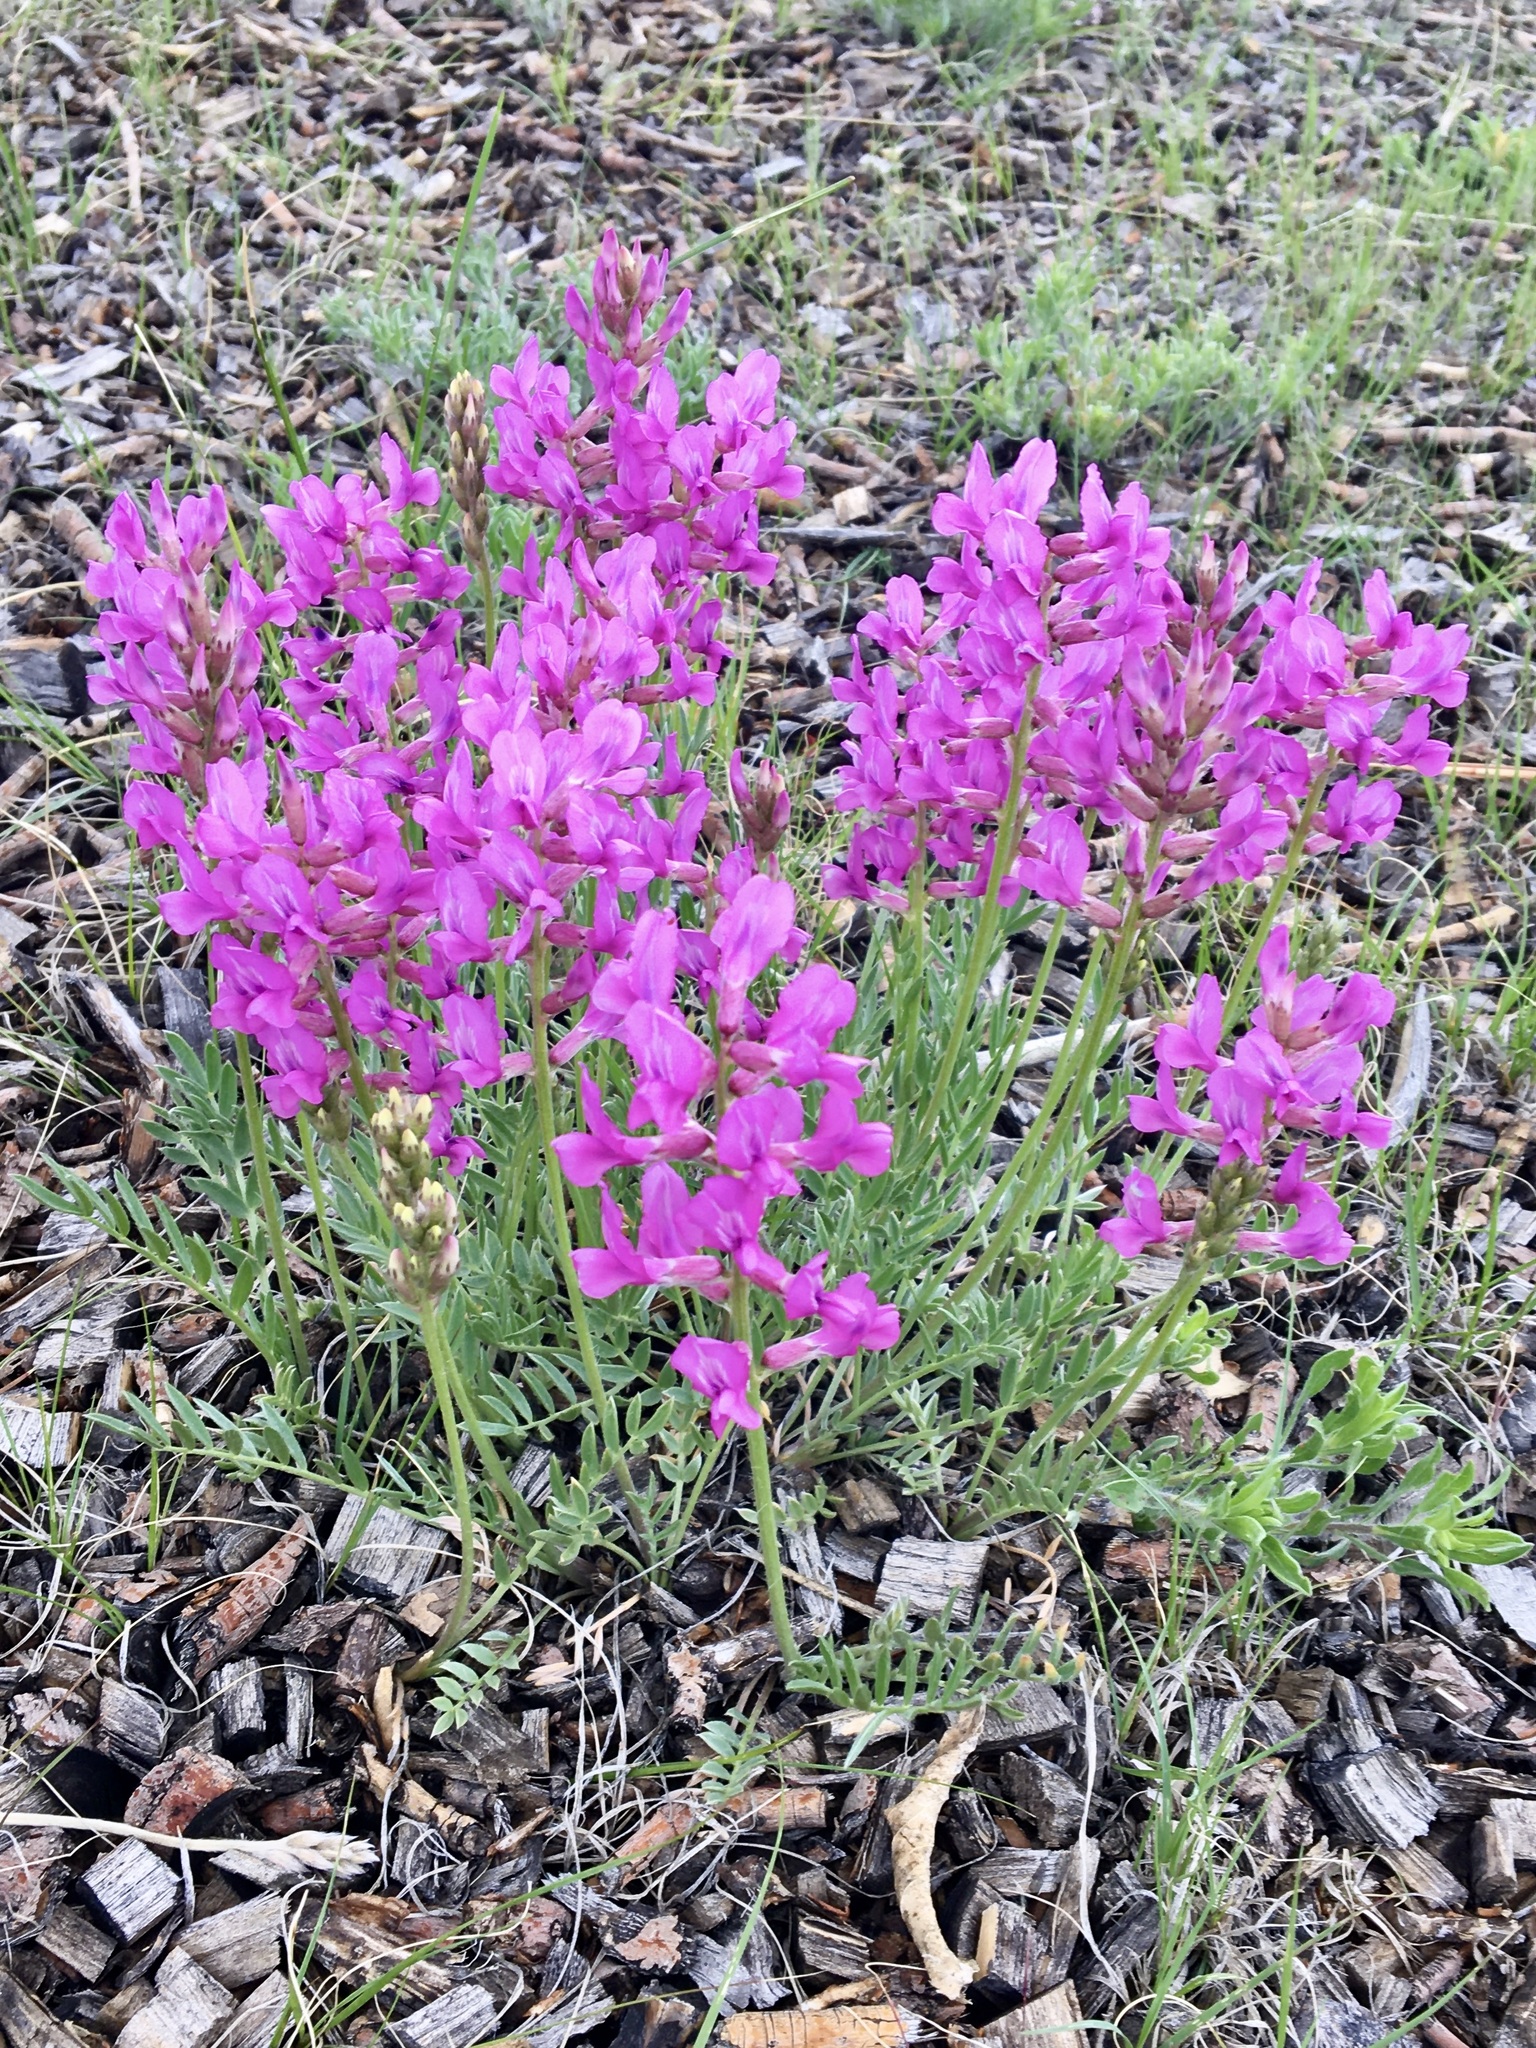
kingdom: Plantae
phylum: Tracheophyta
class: Magnoliopsida
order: Fabales
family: Fabaceae
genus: Oxytropis
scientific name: Oxytropis lambertii
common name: Purple locoweed
